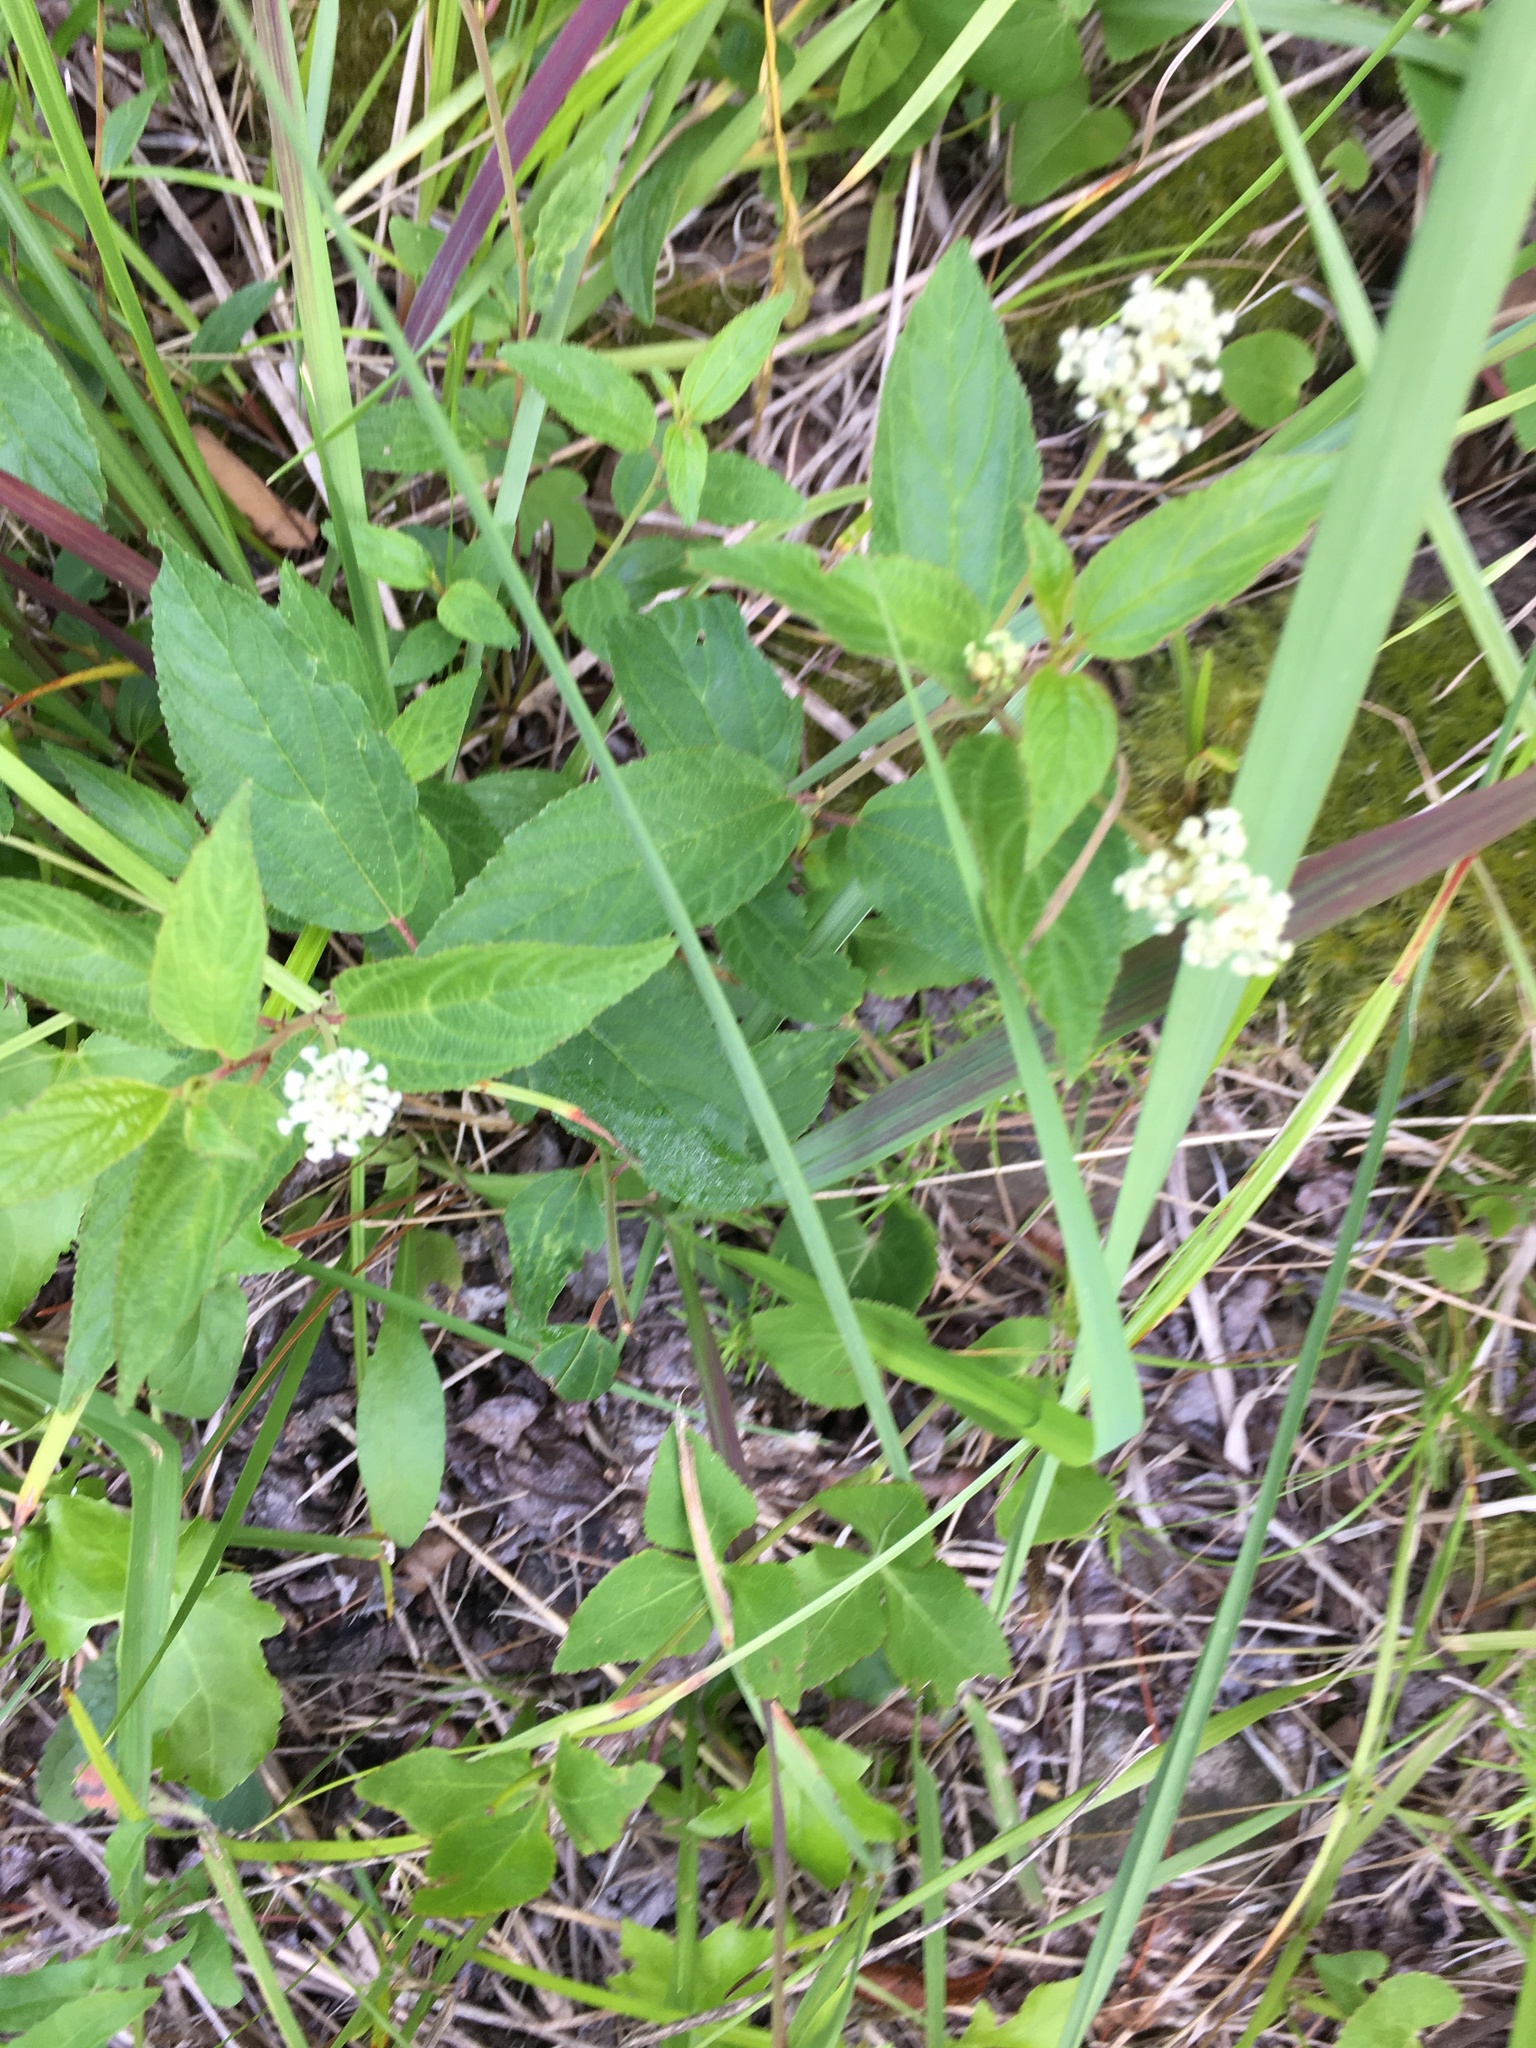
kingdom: Plantae
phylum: Tracheophyta
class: Magnoliopsida
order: Rosales
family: Rhamnaceae
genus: Ceanothus
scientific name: Ceanothus americanus
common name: Redroot
